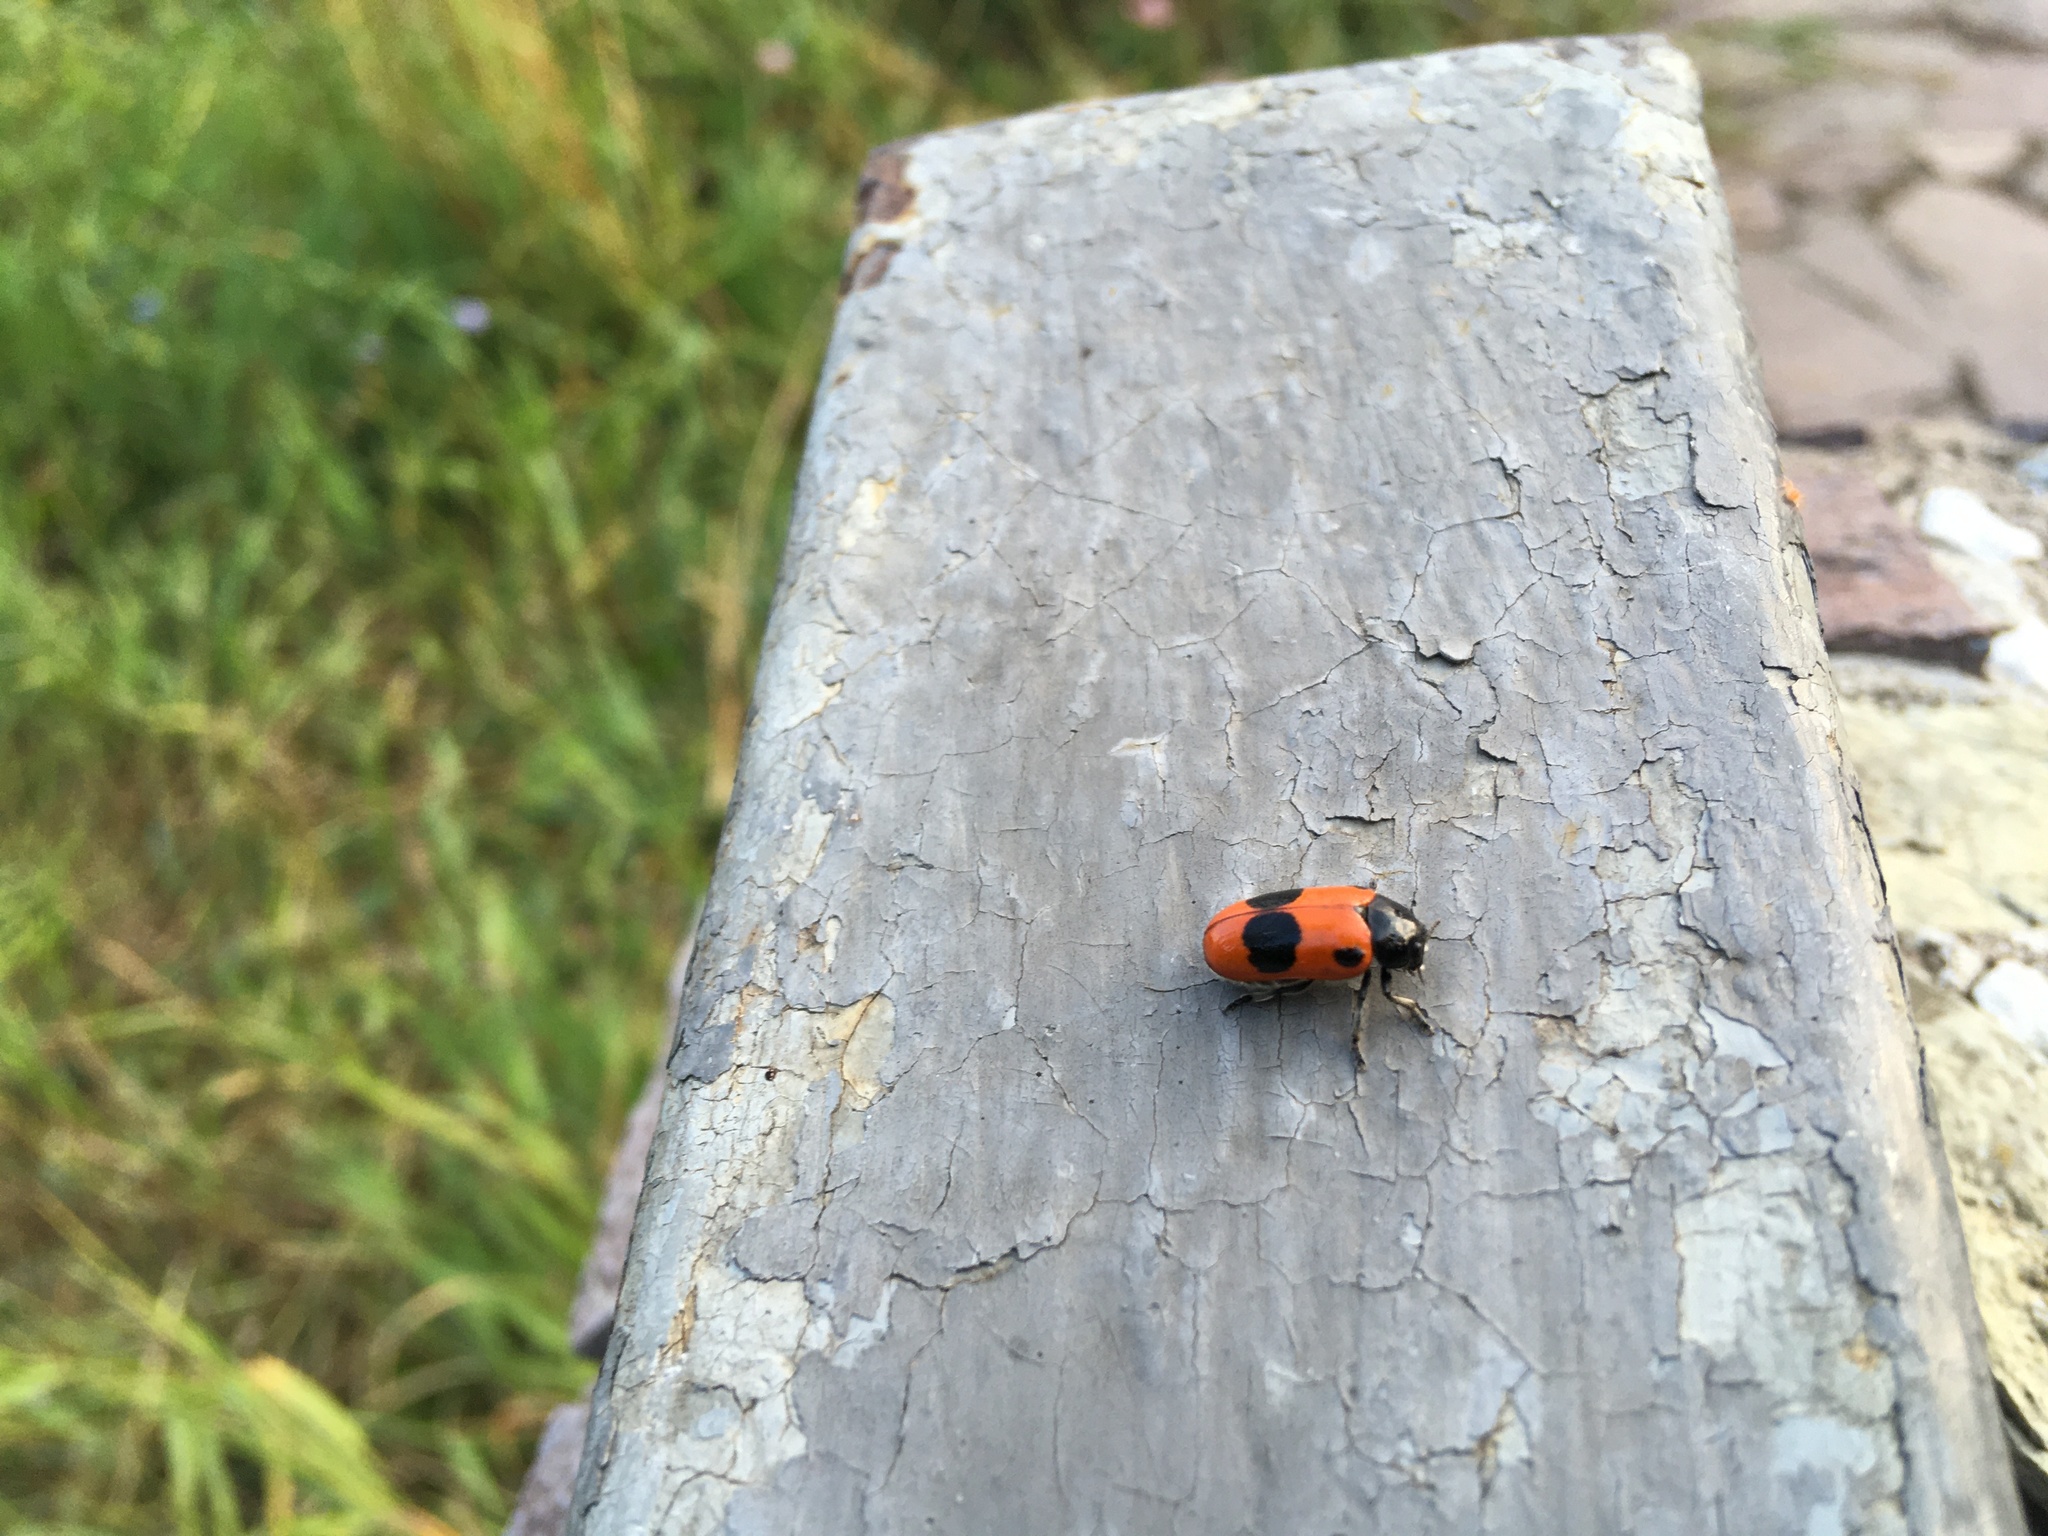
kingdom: Animalia
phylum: Arthropoda
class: Insecta
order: Coleoptera
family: Chrysomelidae
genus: Clytra
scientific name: Clytra laeviuscula
